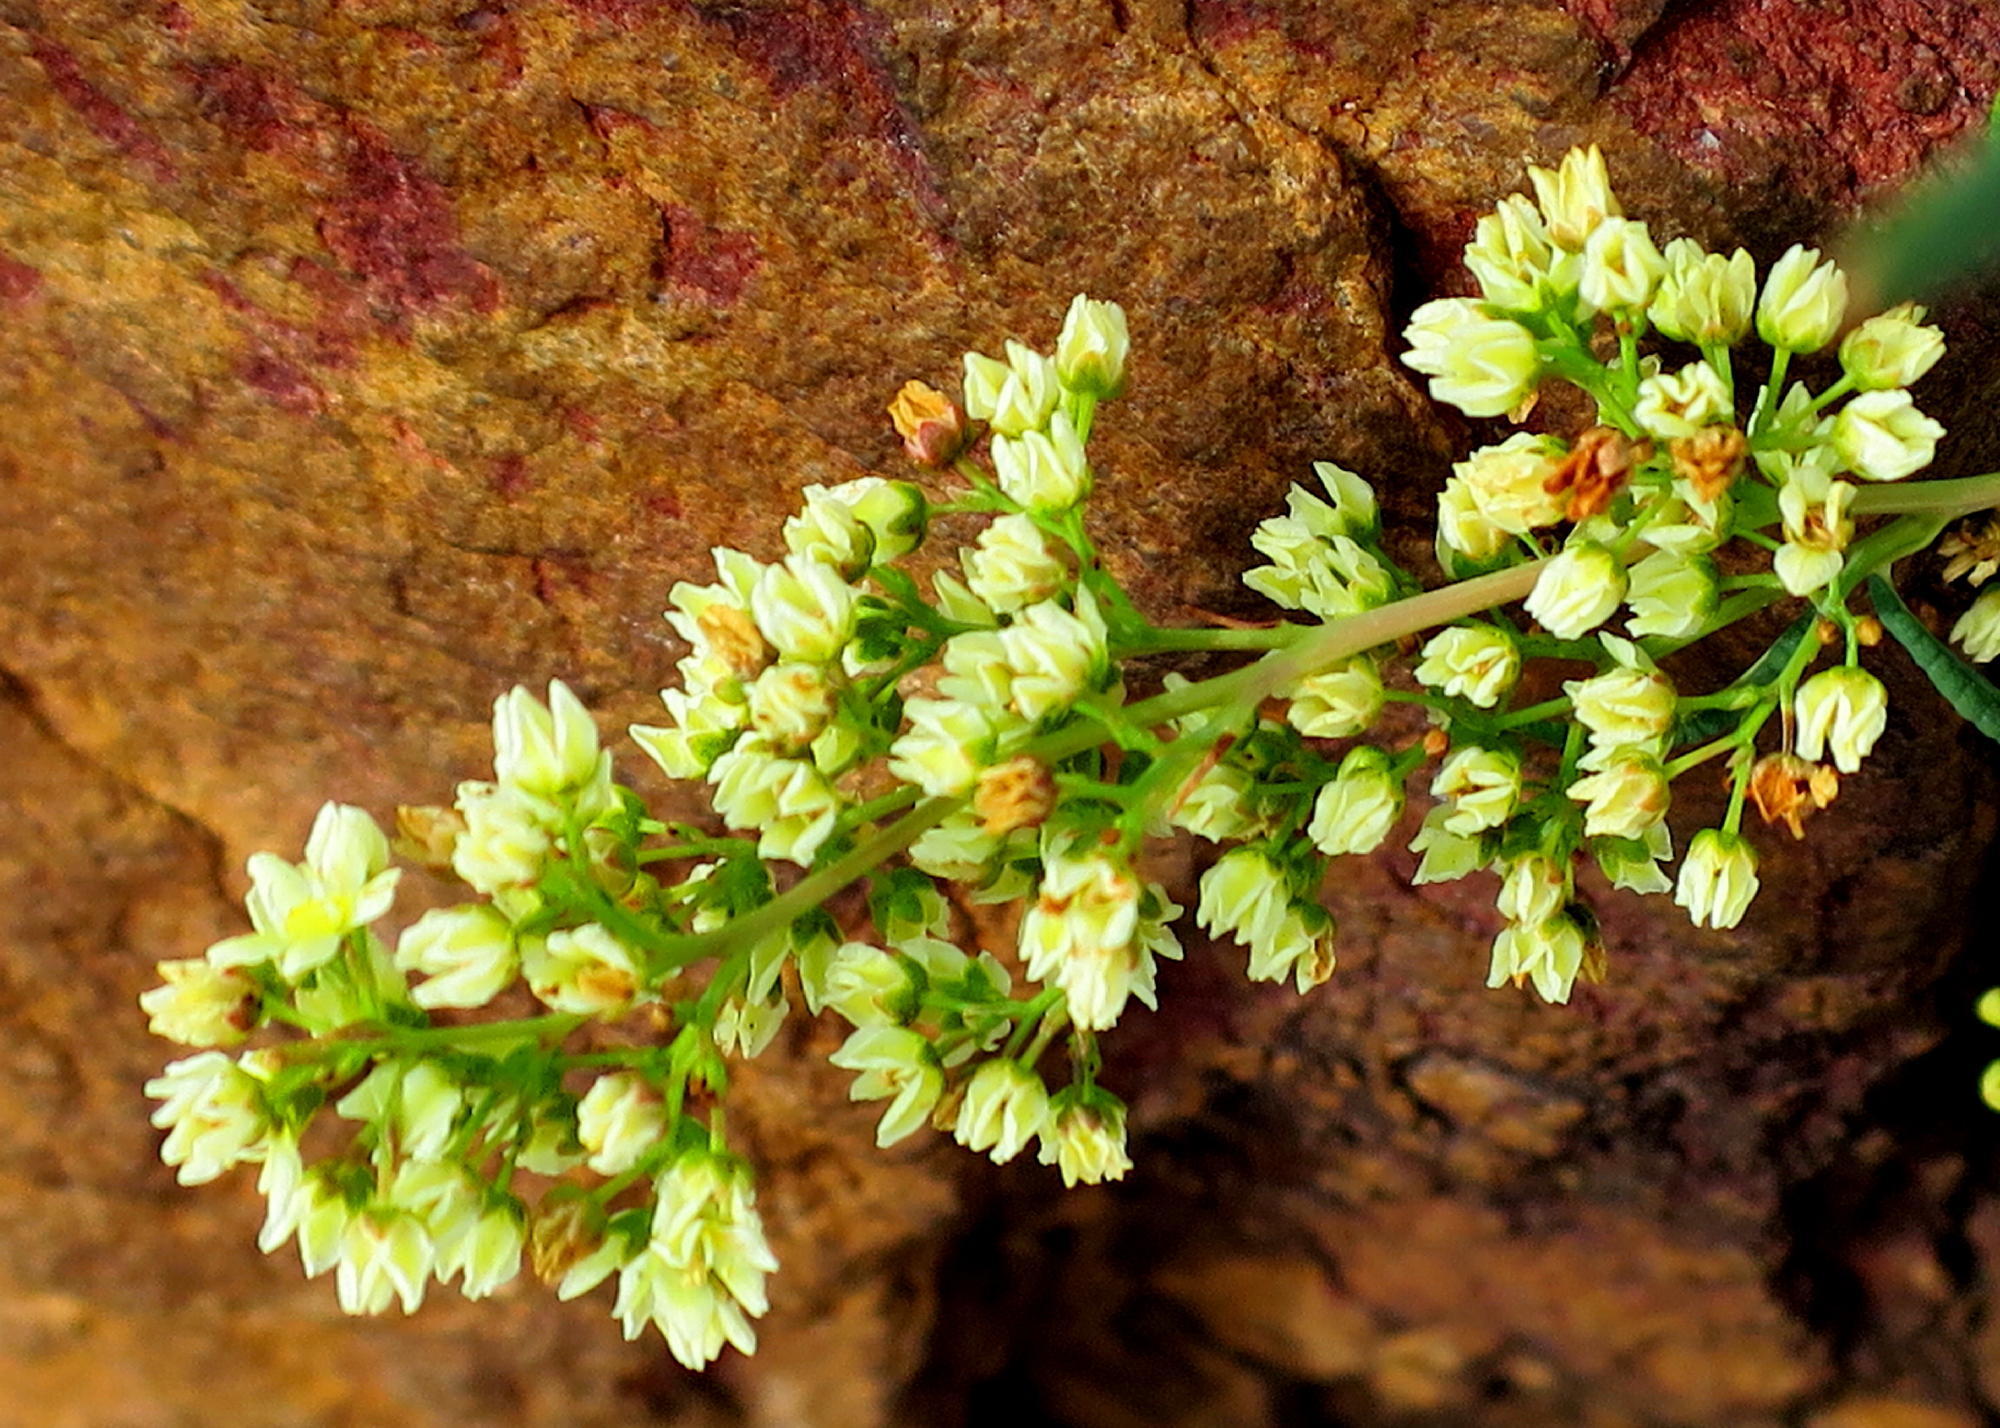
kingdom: Plantae
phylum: Tracheophyta
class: Magnoliopsida
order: Sapindales
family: Anacardiaceae
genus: Searsia
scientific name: Searsia rosmarinifolia
